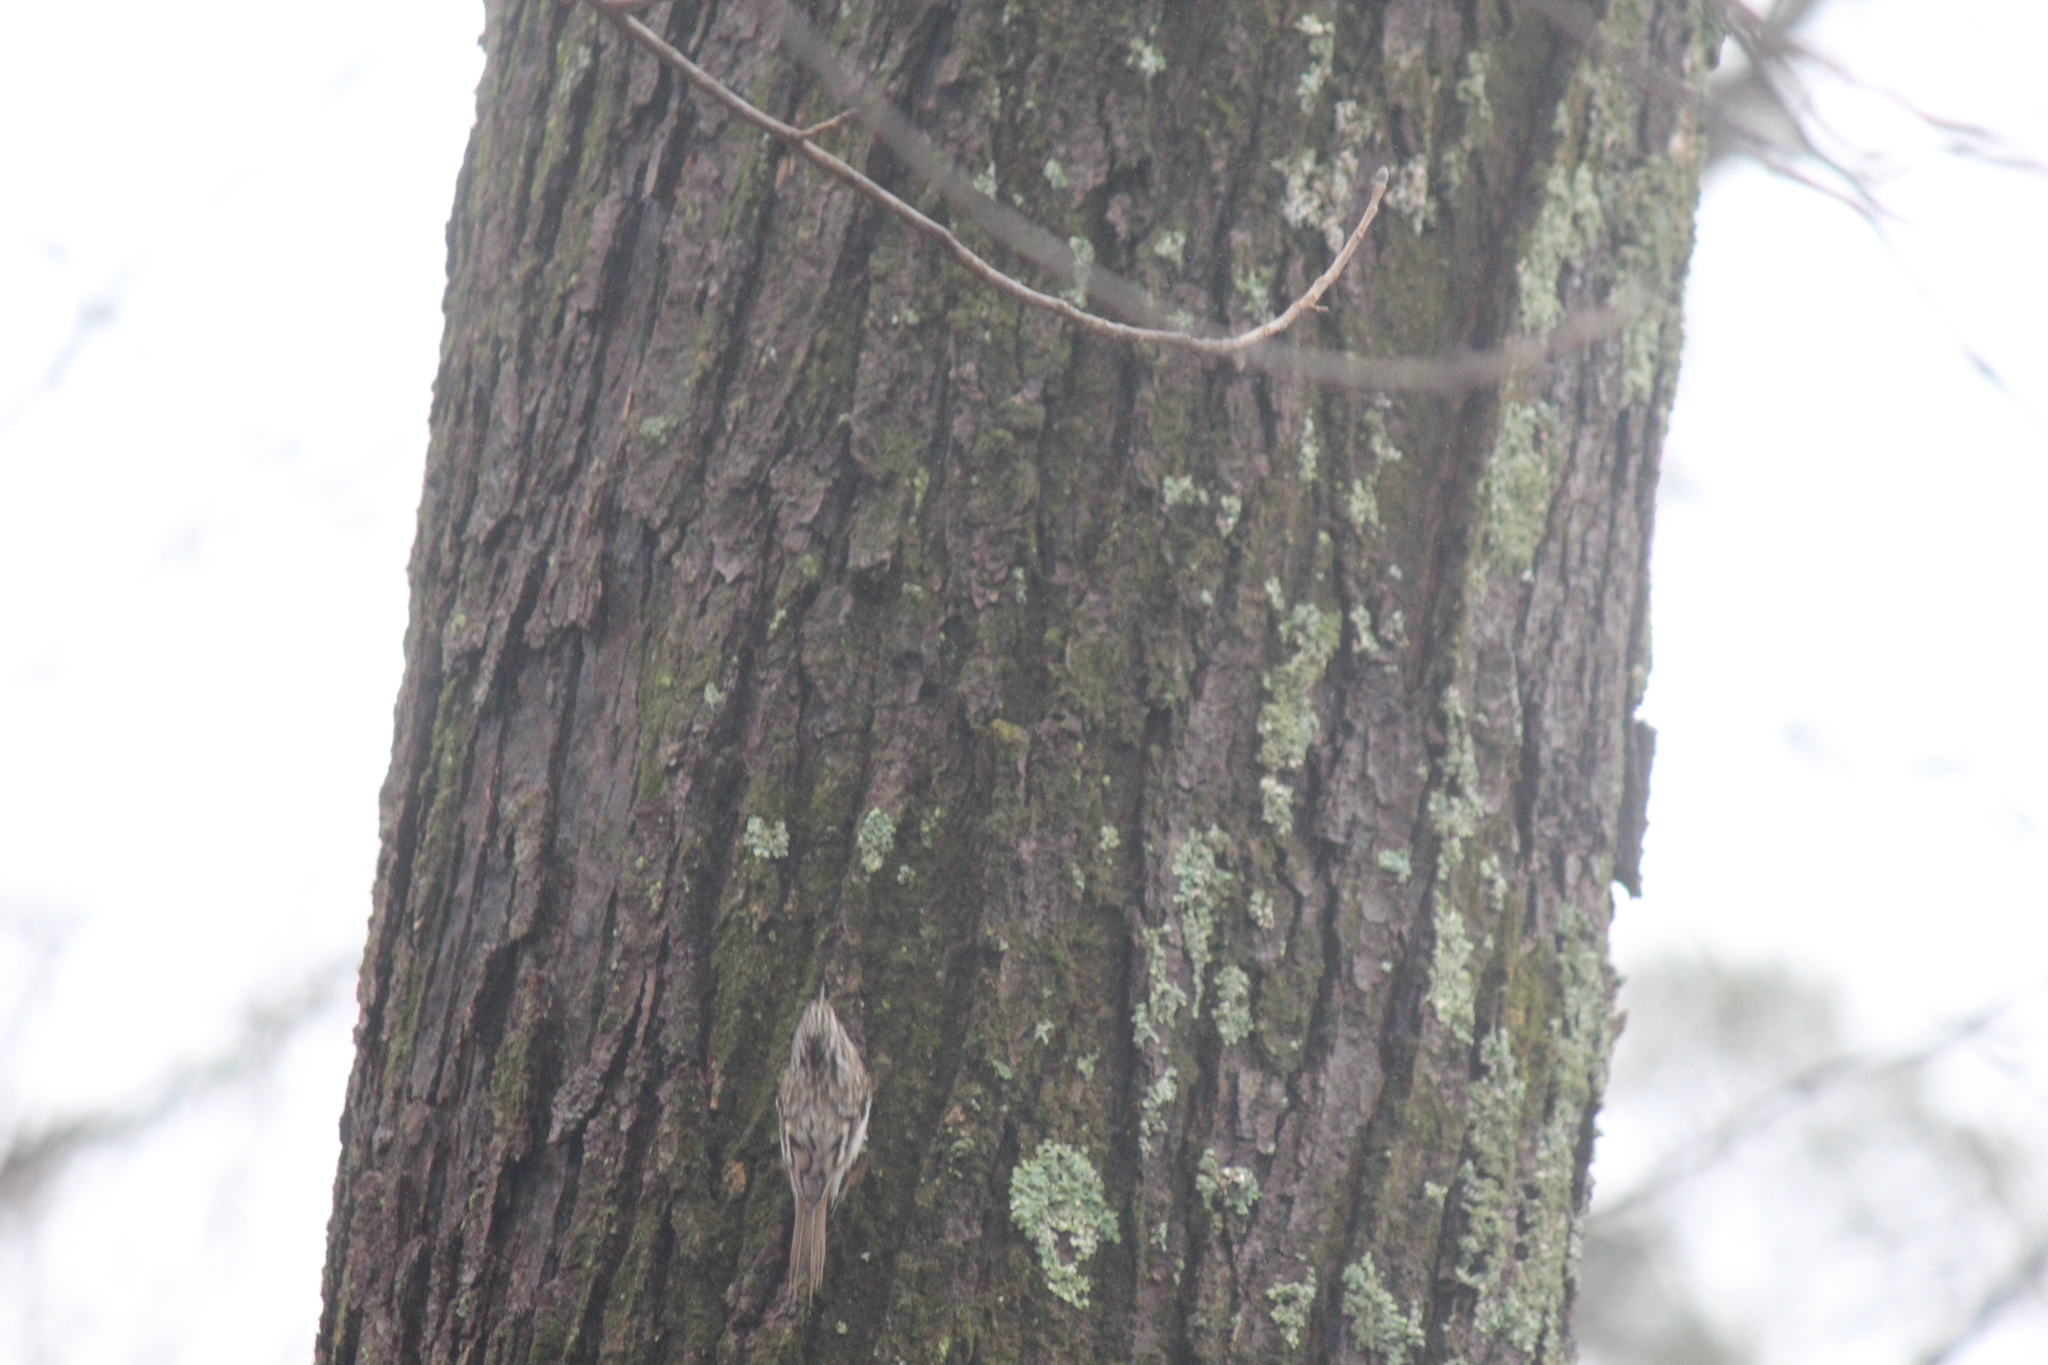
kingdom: Animalia
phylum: Chordata
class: Aves
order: Passeriformes
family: Certhiidae
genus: Certhia
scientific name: Certhia americana
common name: Brown creeper
